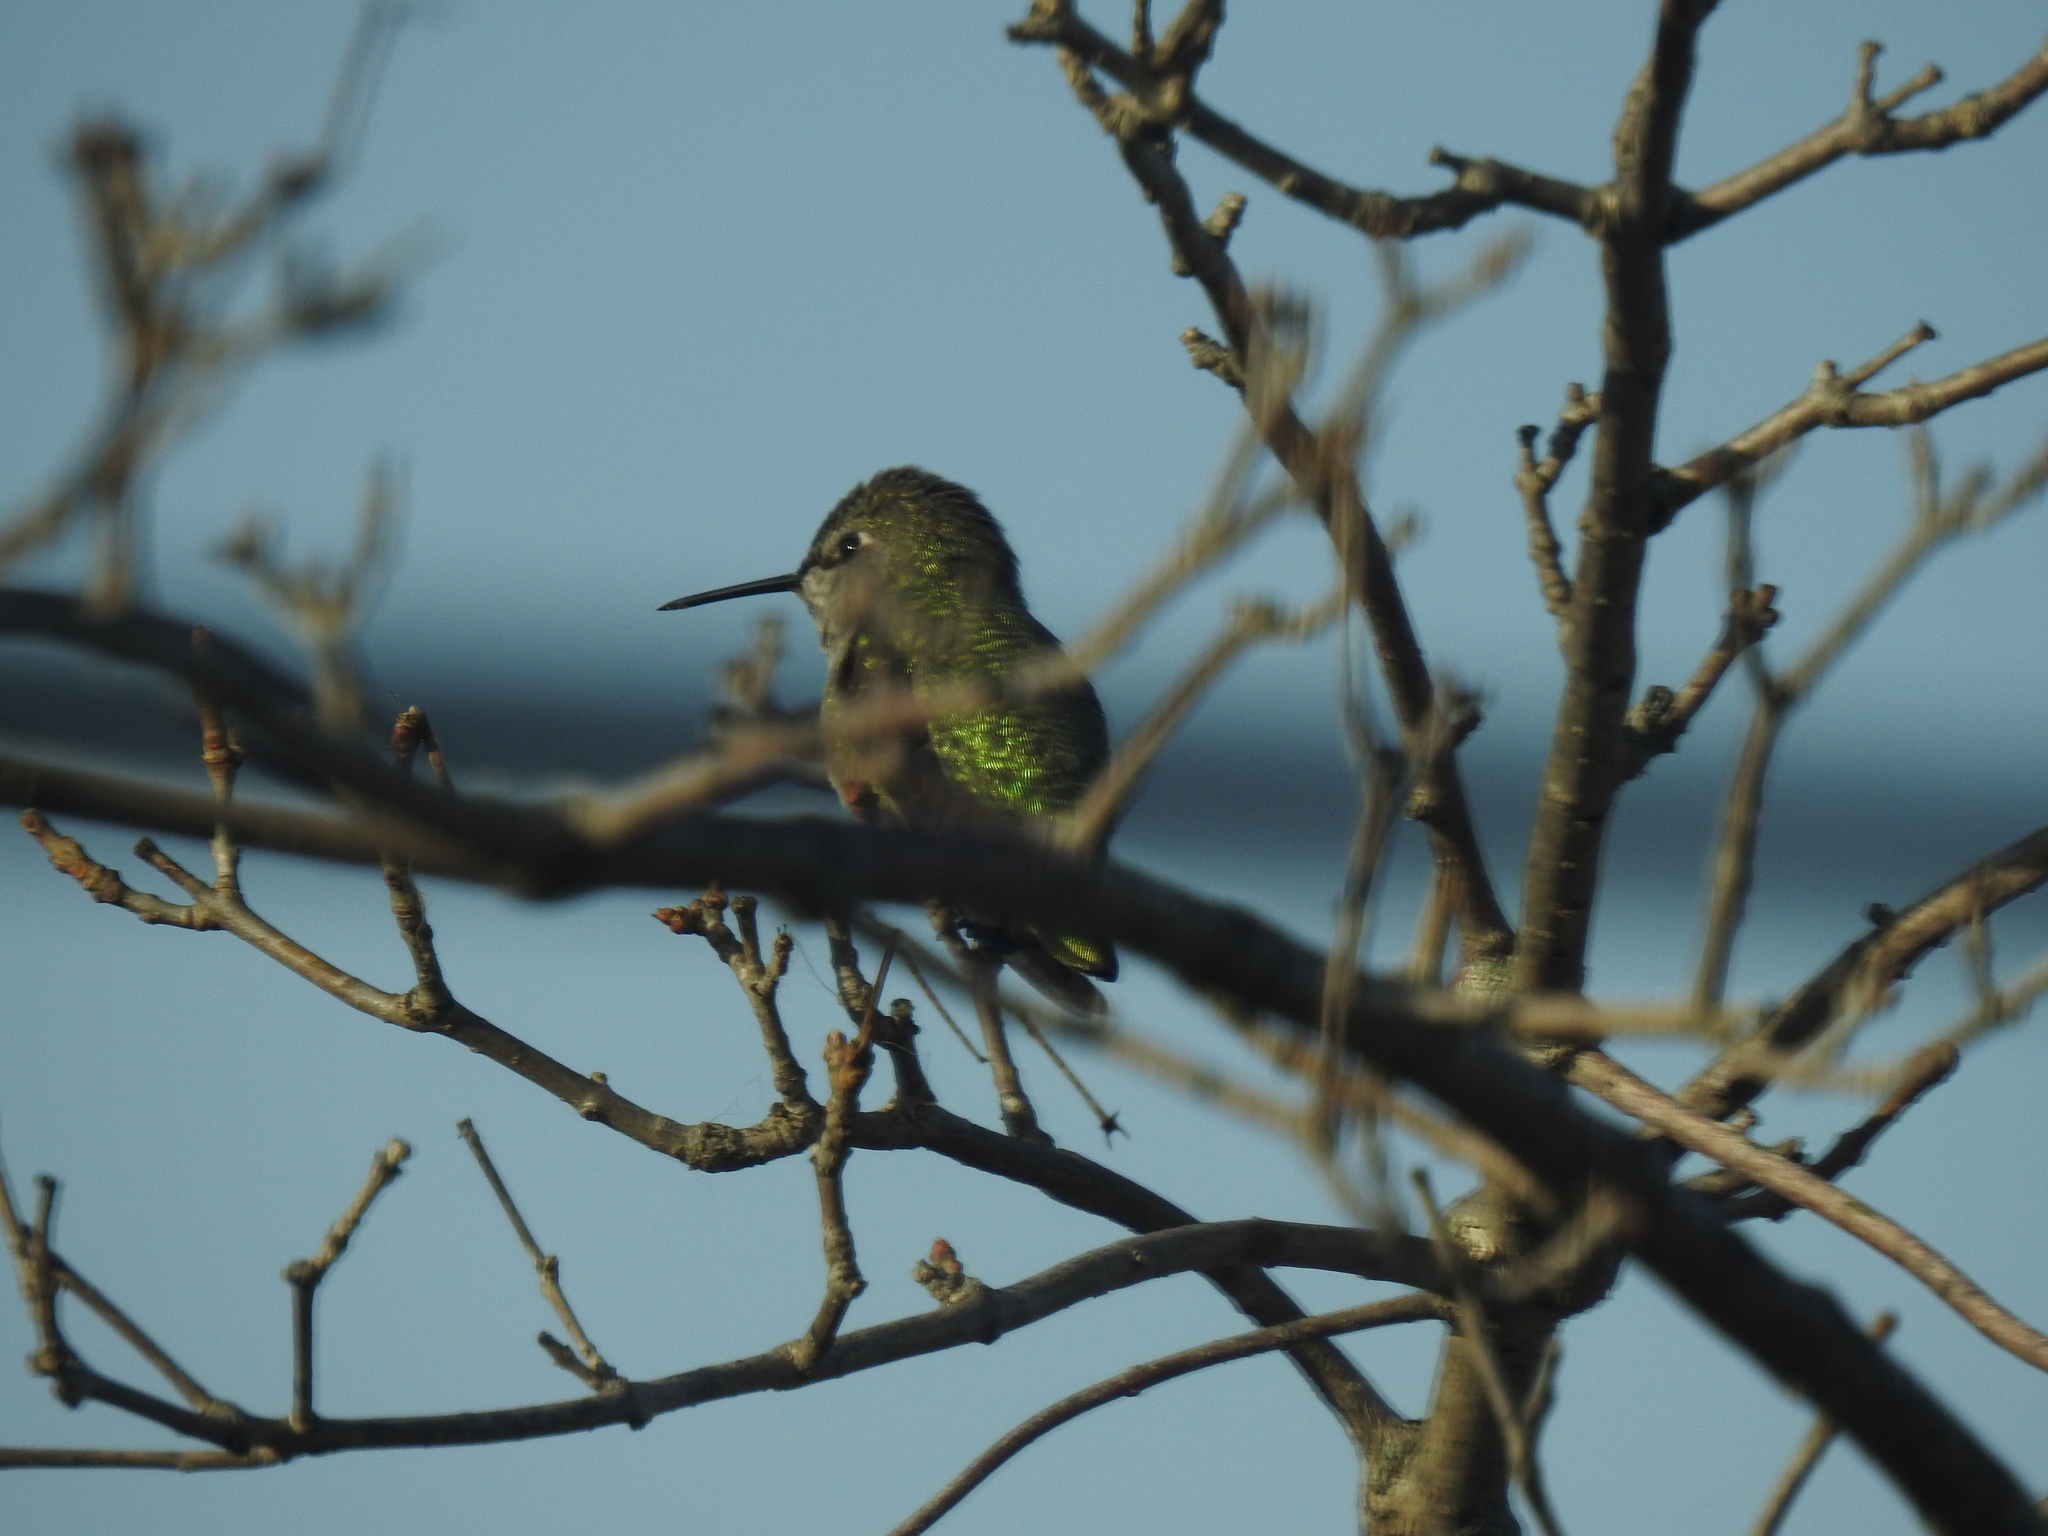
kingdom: Animalia
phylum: Chordata
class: Aves
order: Apodiformes
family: Trochilidae
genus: Calypte
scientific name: Calypte anna
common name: Anna's hummingbird
